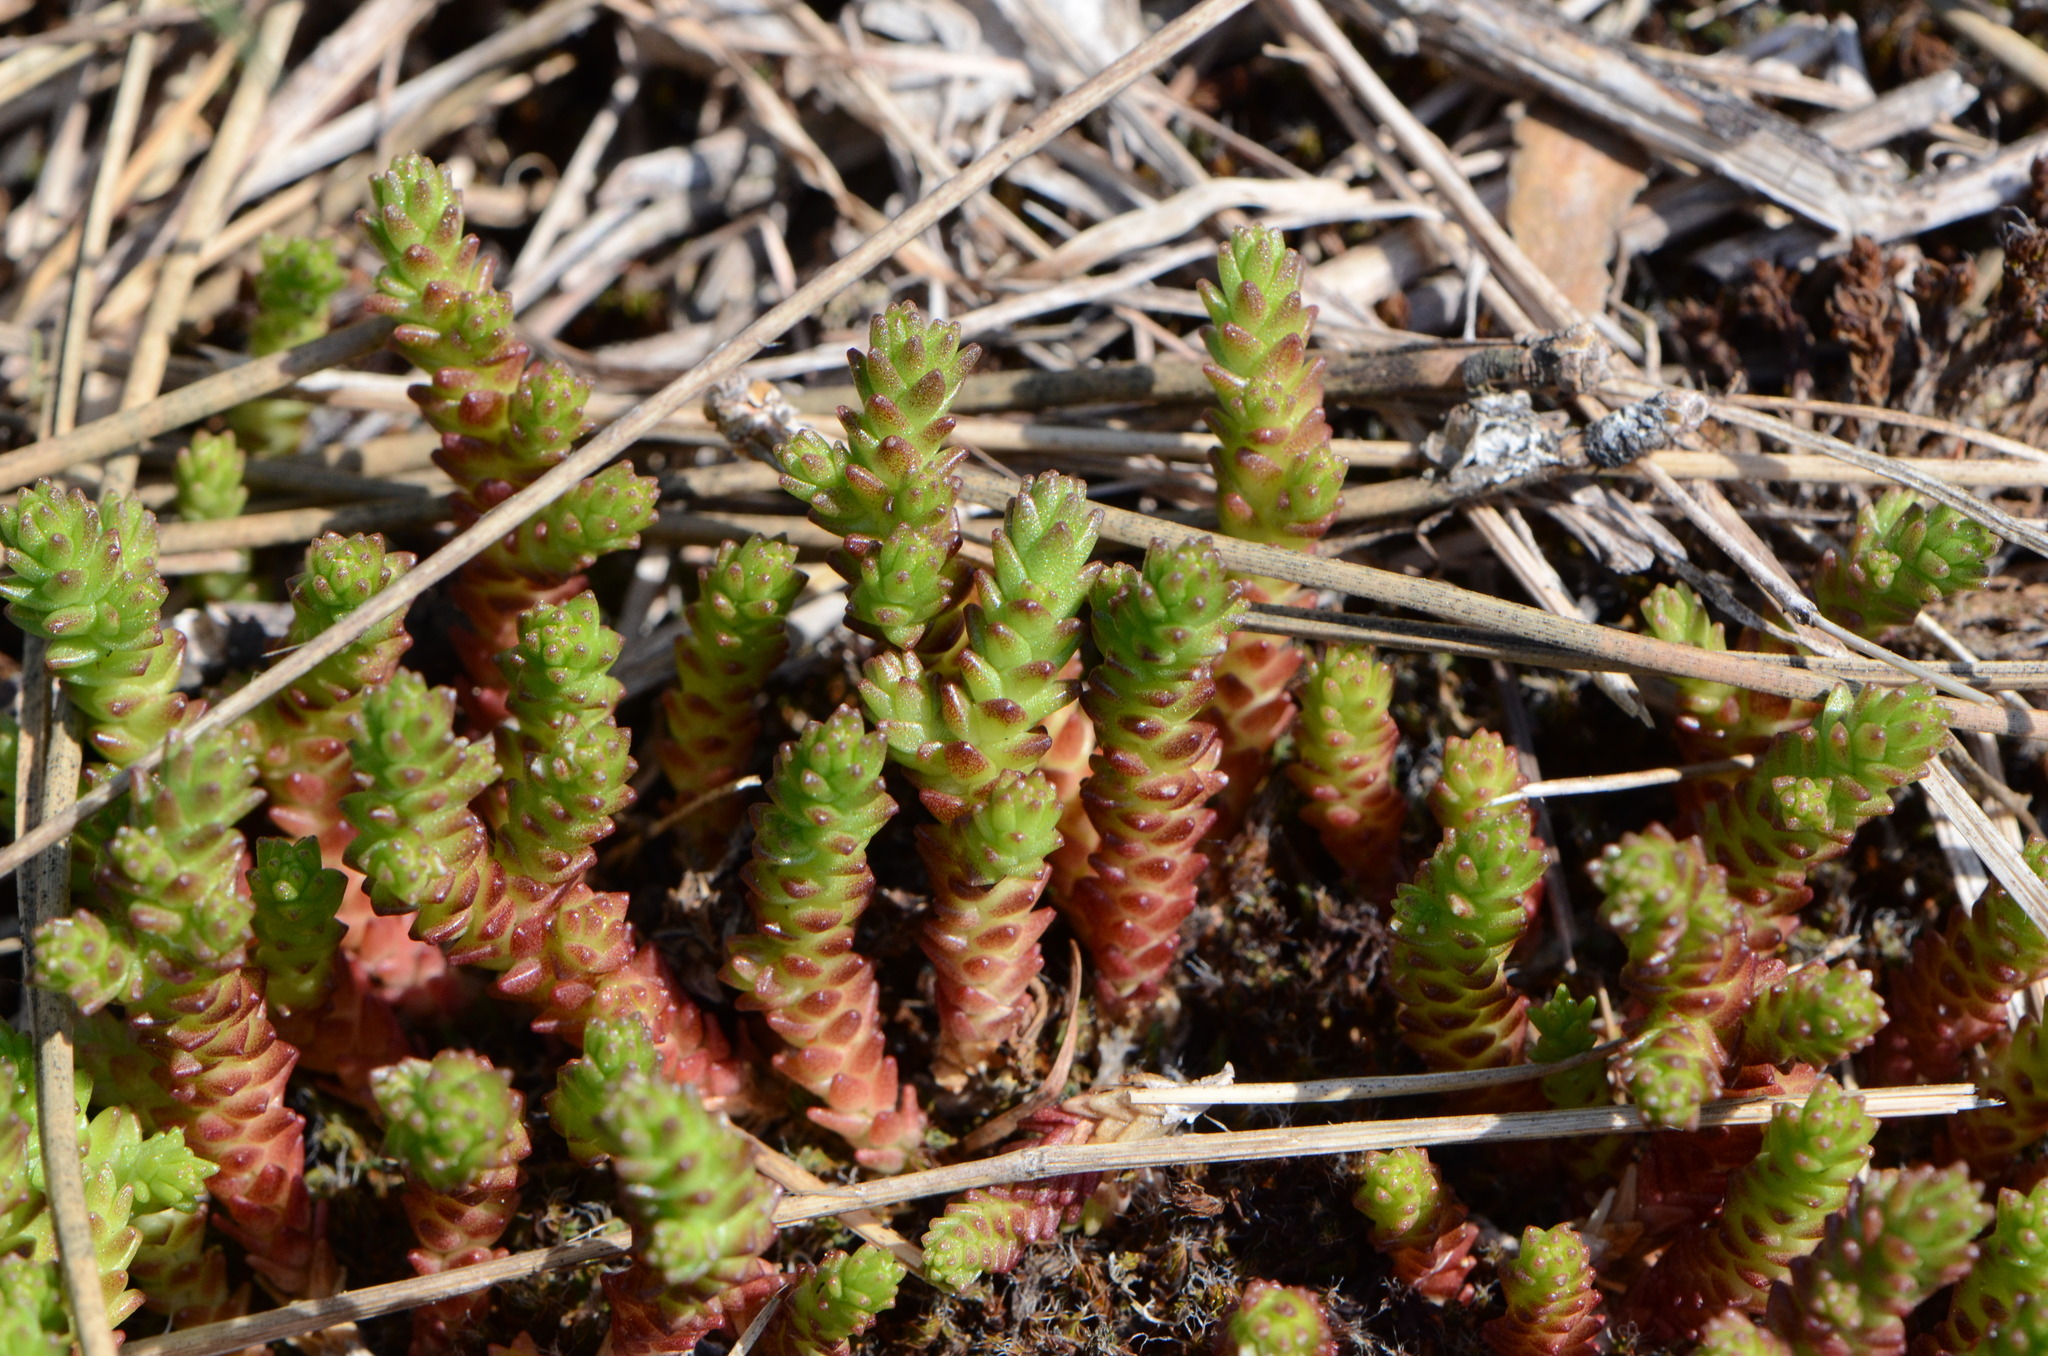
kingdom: Plantae
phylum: Tracheophyta
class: Magnoliopsida
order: Saxifragales
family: Crassulaceae
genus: Sedum
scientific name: Sedum acre
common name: Biting stonecrop
